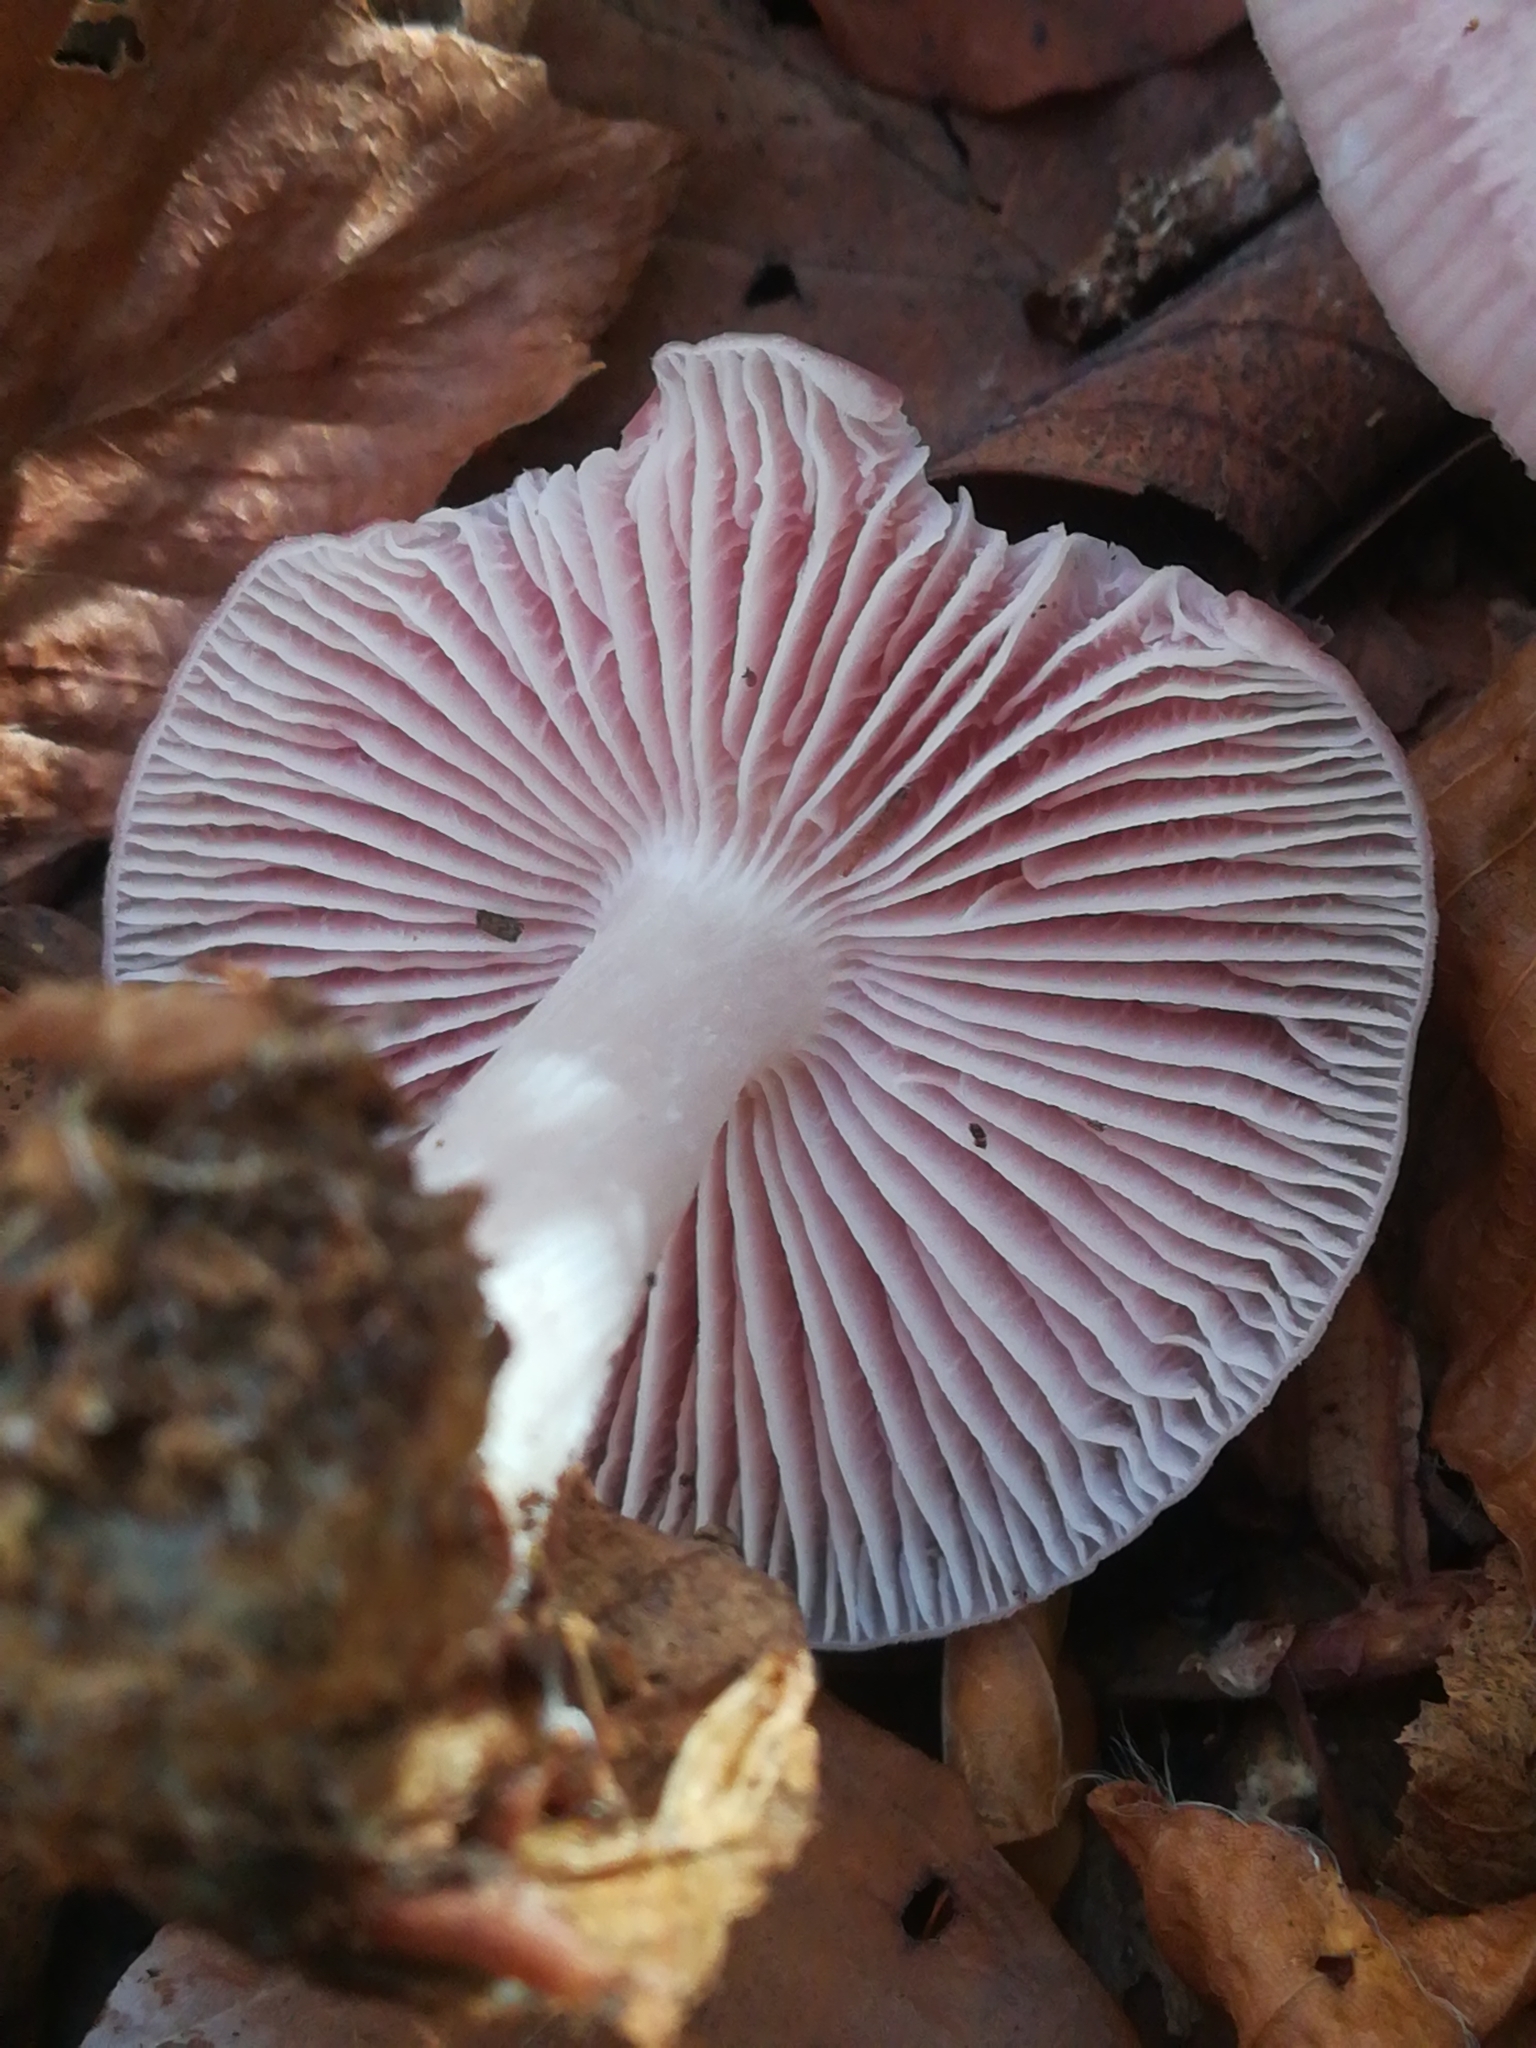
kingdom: Fungi
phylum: Basidiomycota
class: Agaricomycetes
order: Agaricales
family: Mycenaceae
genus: Mycena
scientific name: Mycena rosea
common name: Rosy bonnet
